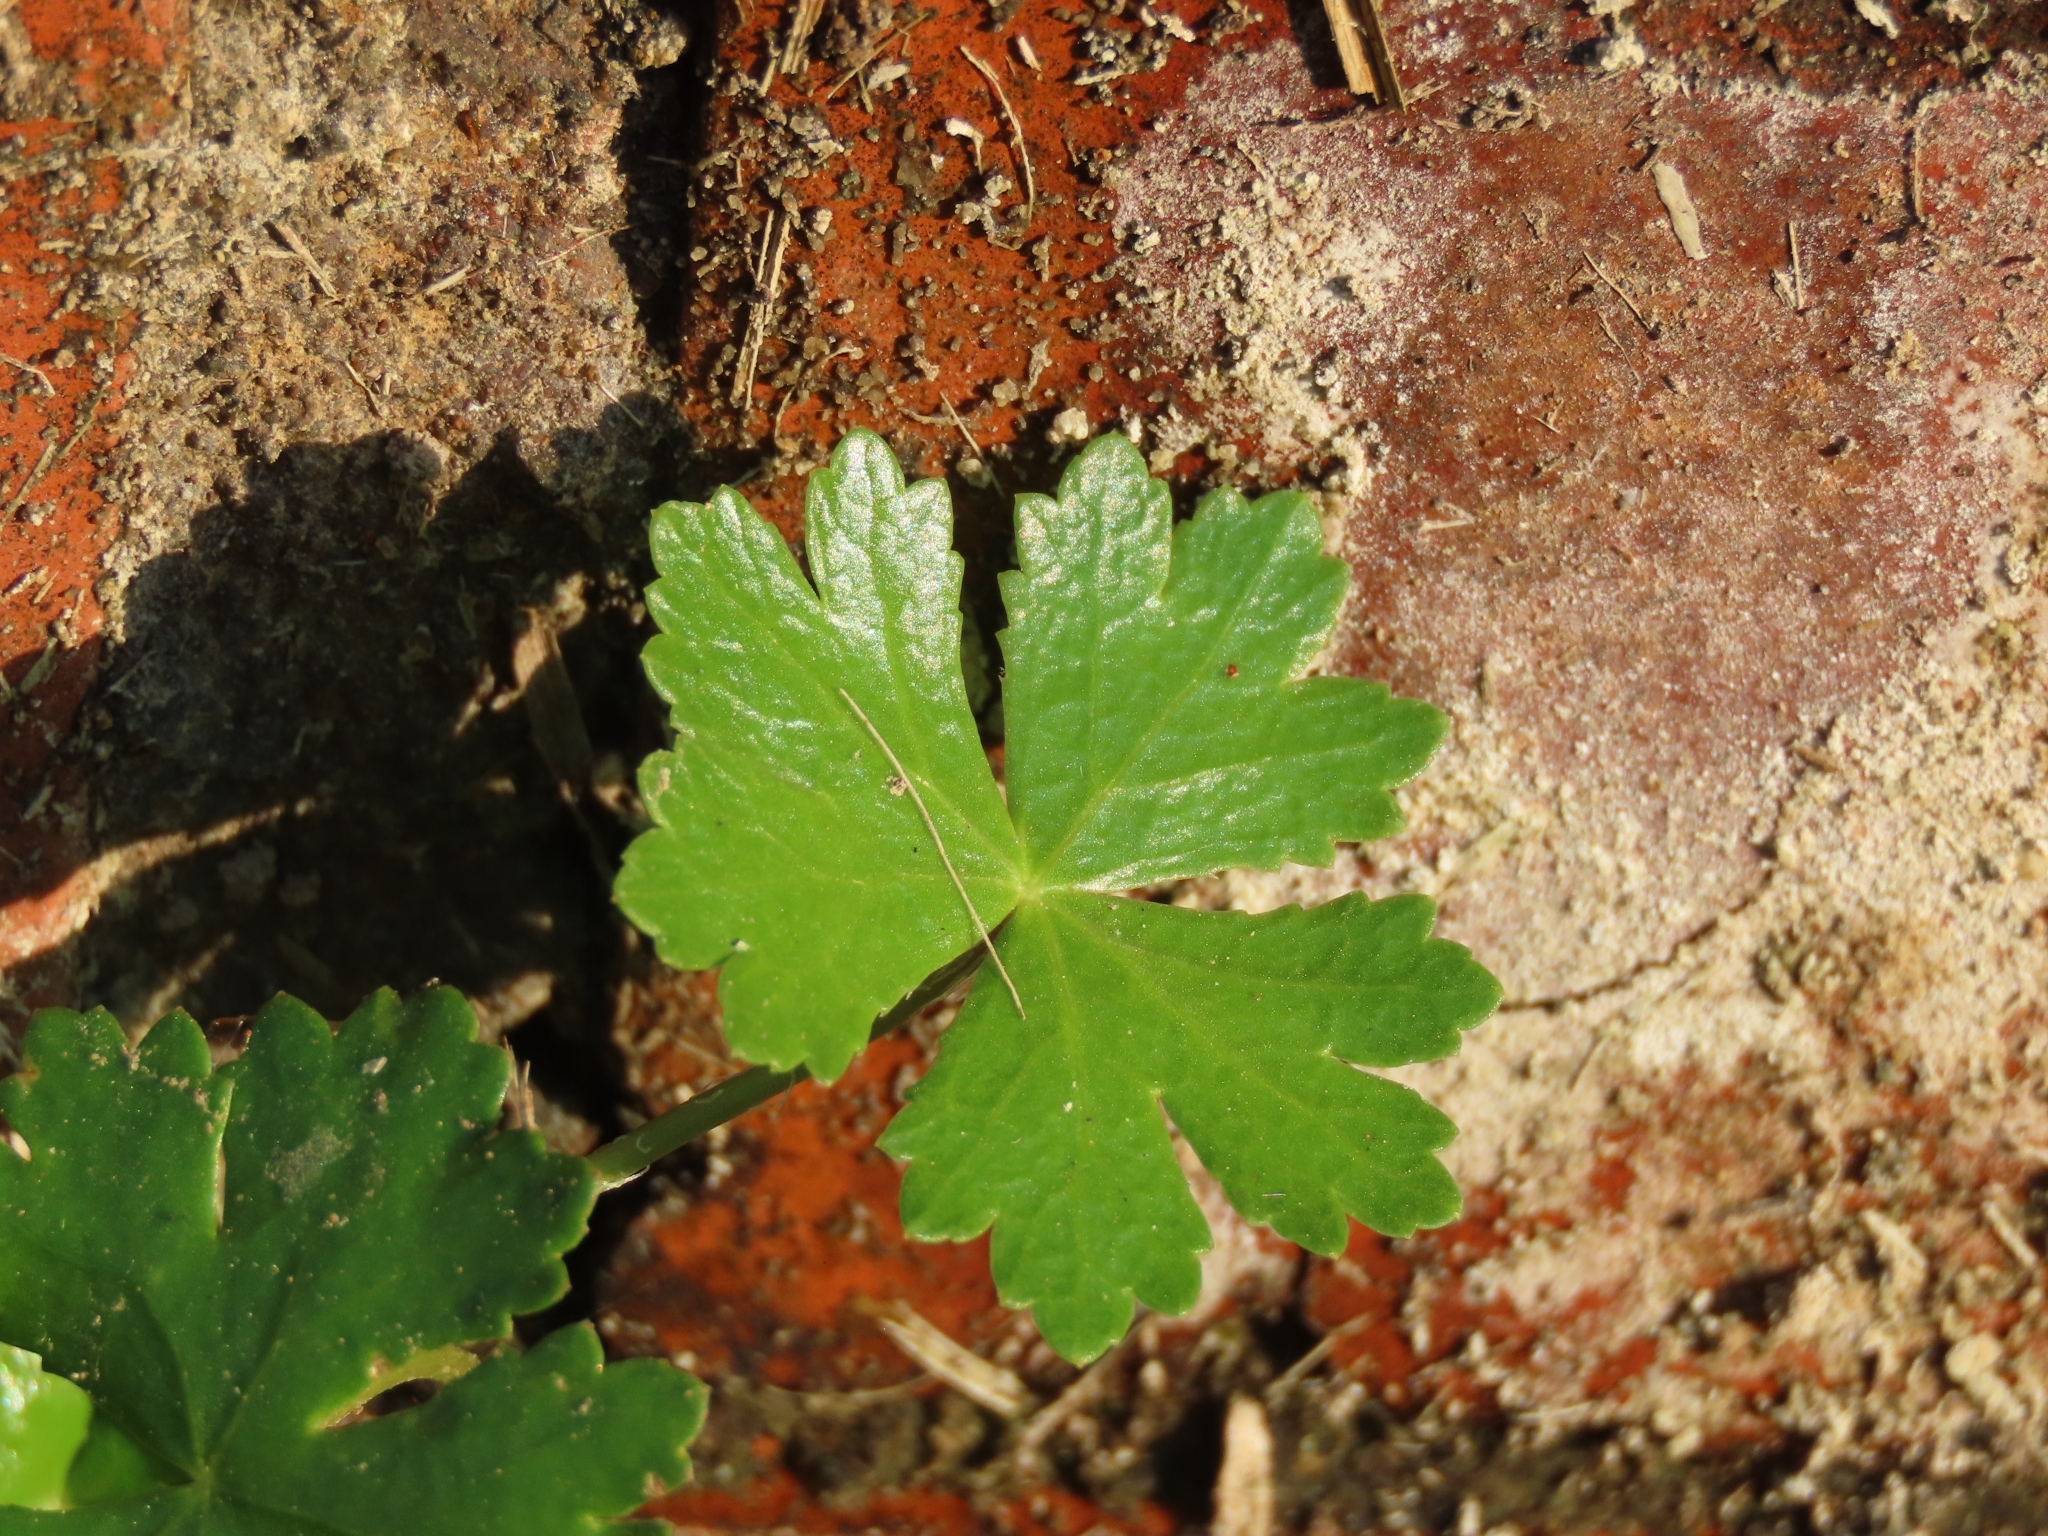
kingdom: Plantae
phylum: Tracheophyta
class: Magnoliopsida
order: Apiales
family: Araliaceae
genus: Hydrocotyle
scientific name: Hydrocotyle batrachium
